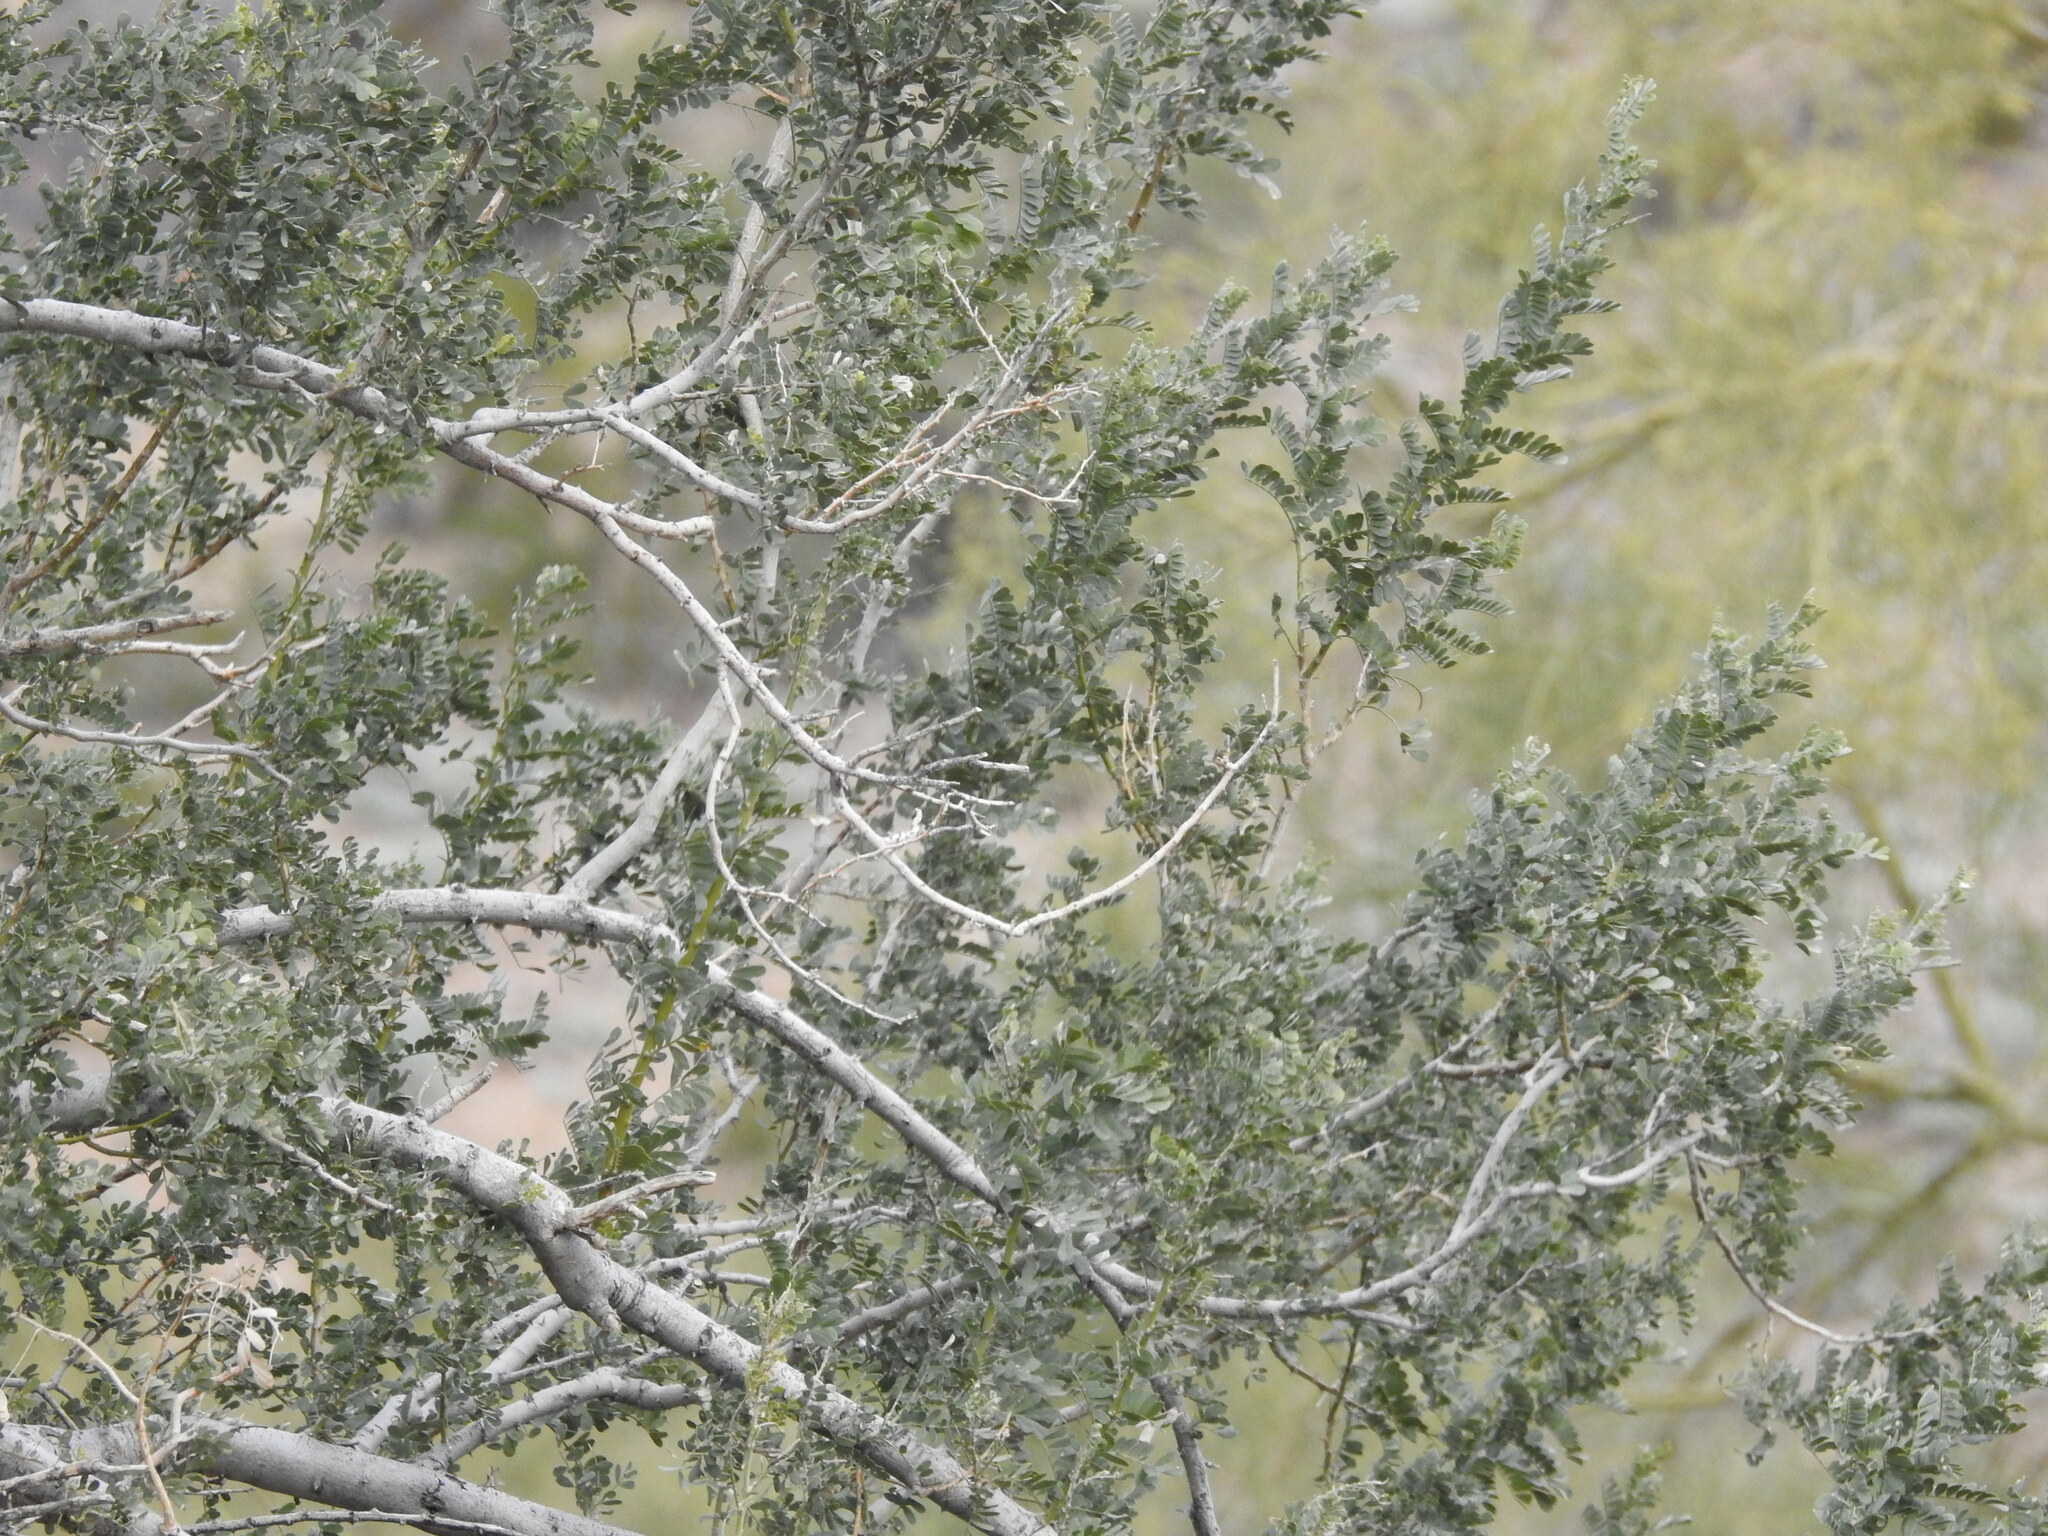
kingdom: Plantae
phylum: Tracheophyta
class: Magnoliopsida
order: Fabales
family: Fabaceae
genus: Olneya
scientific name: Olneya tesota
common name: Desert ironwood
